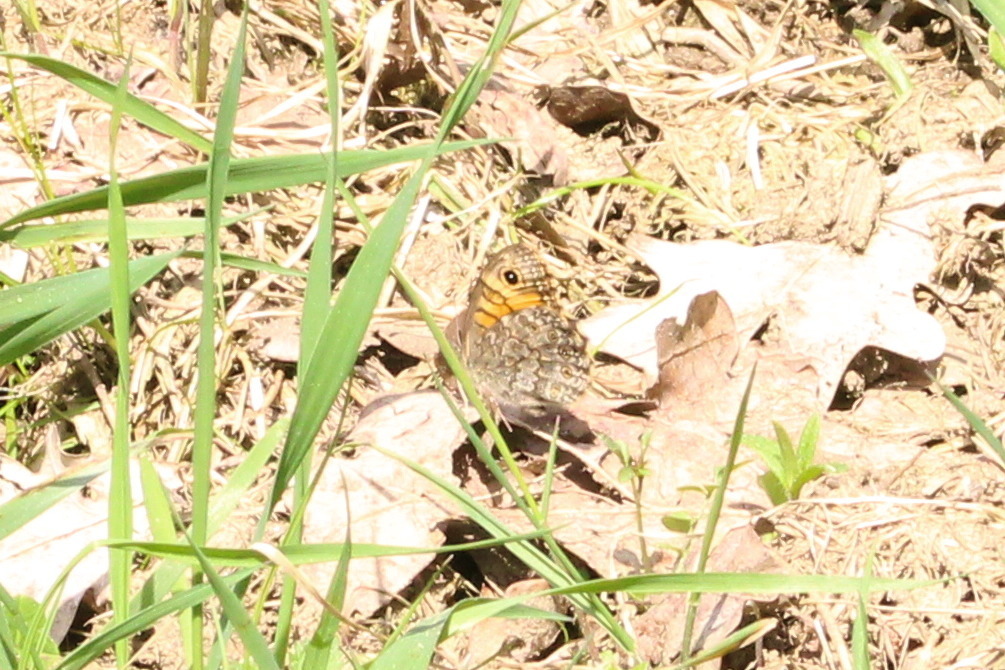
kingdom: Animalia
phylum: Arthropoda
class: Insecta
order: Lepidoptera
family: Nymphalidae
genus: Pararge
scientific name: Pararge Lasiommata megera
